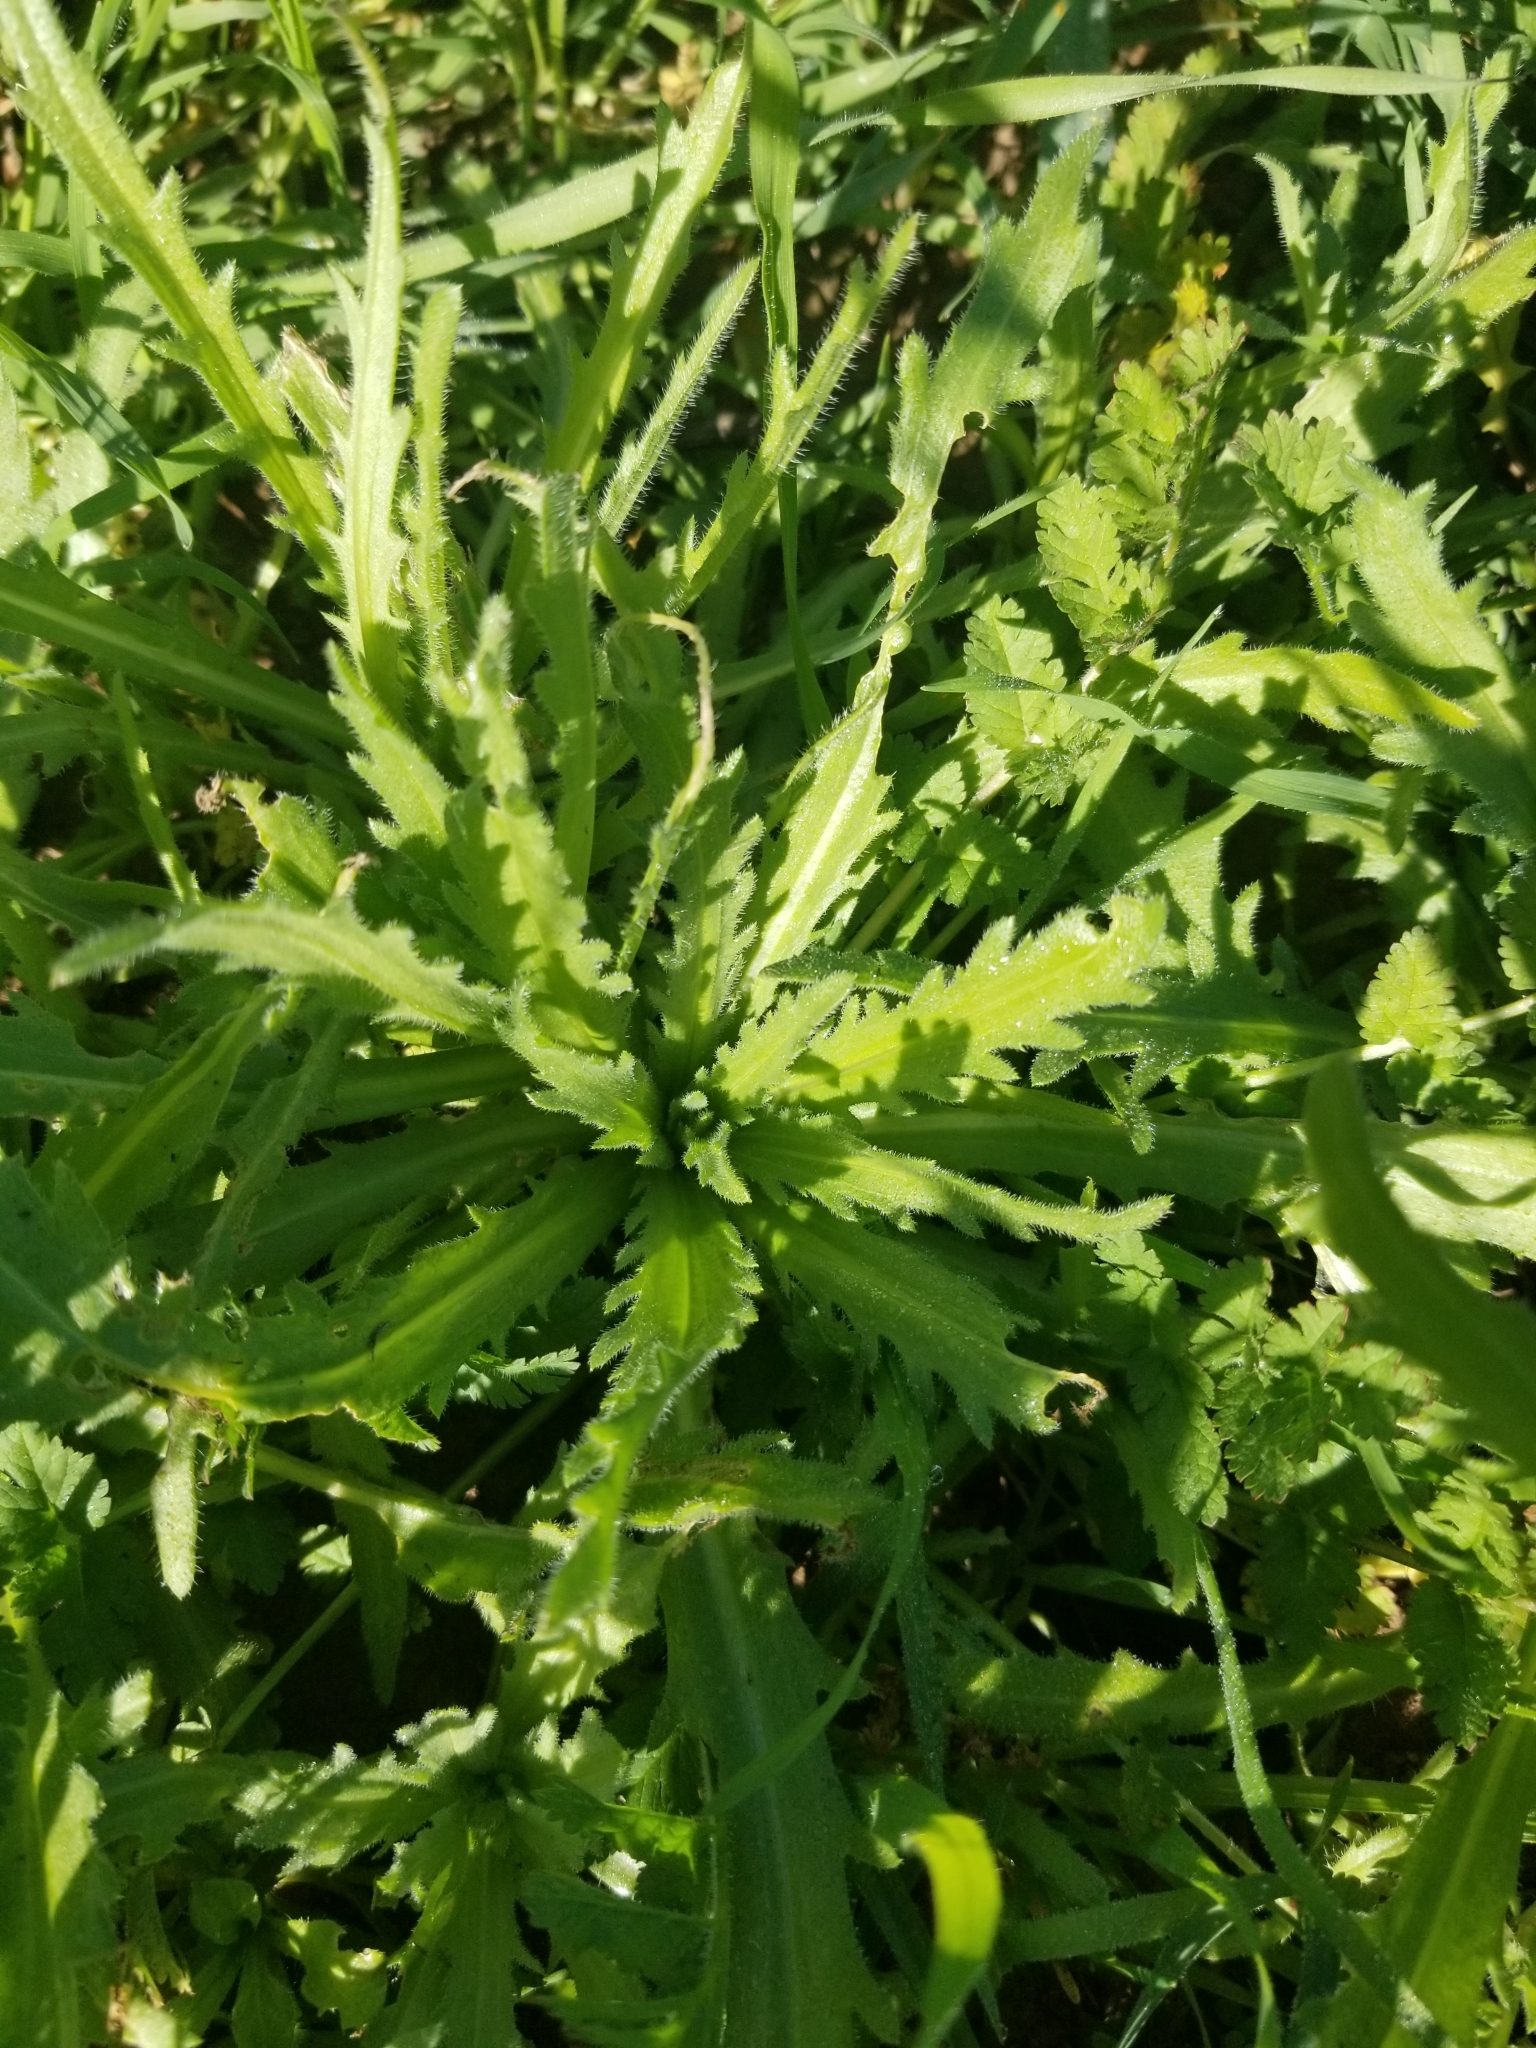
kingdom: Plantae
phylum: Tracheophyta
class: Magnoliopsida
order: Asterales
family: Asteraceae
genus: Layia
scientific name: Layia platyglossa
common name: Tidy-tips
